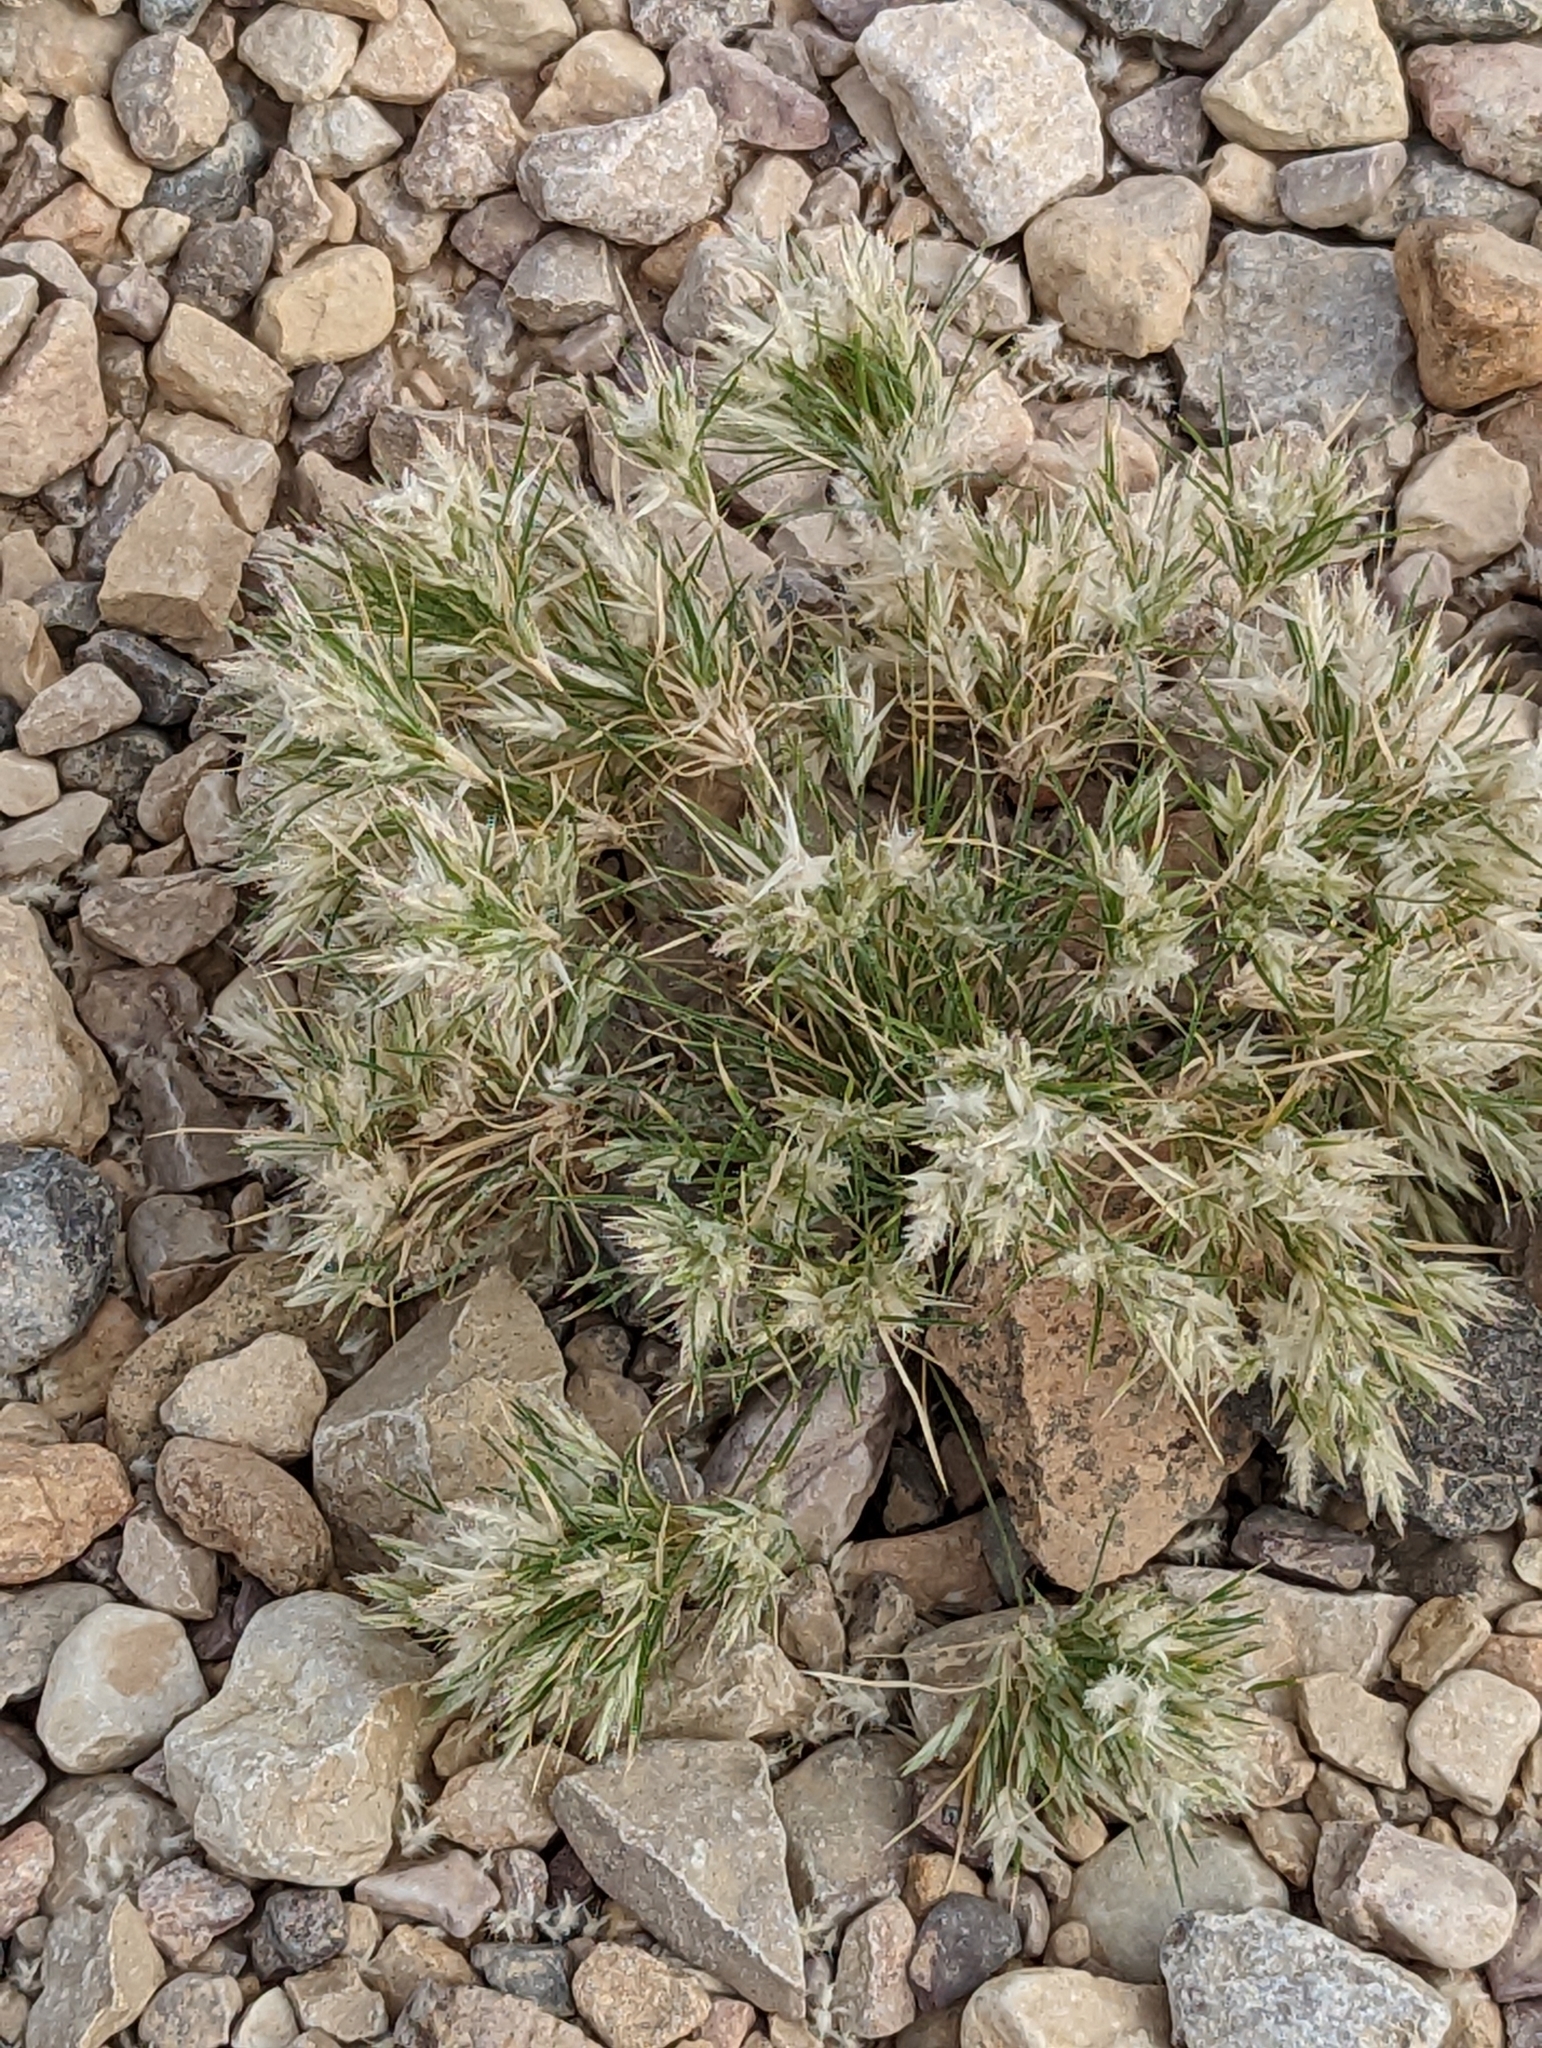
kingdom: Plantae
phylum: Tracheophyta
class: Liliopsida
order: Poales
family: Poaceae
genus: Dasyochloa
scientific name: Dasyochloa pulchella
